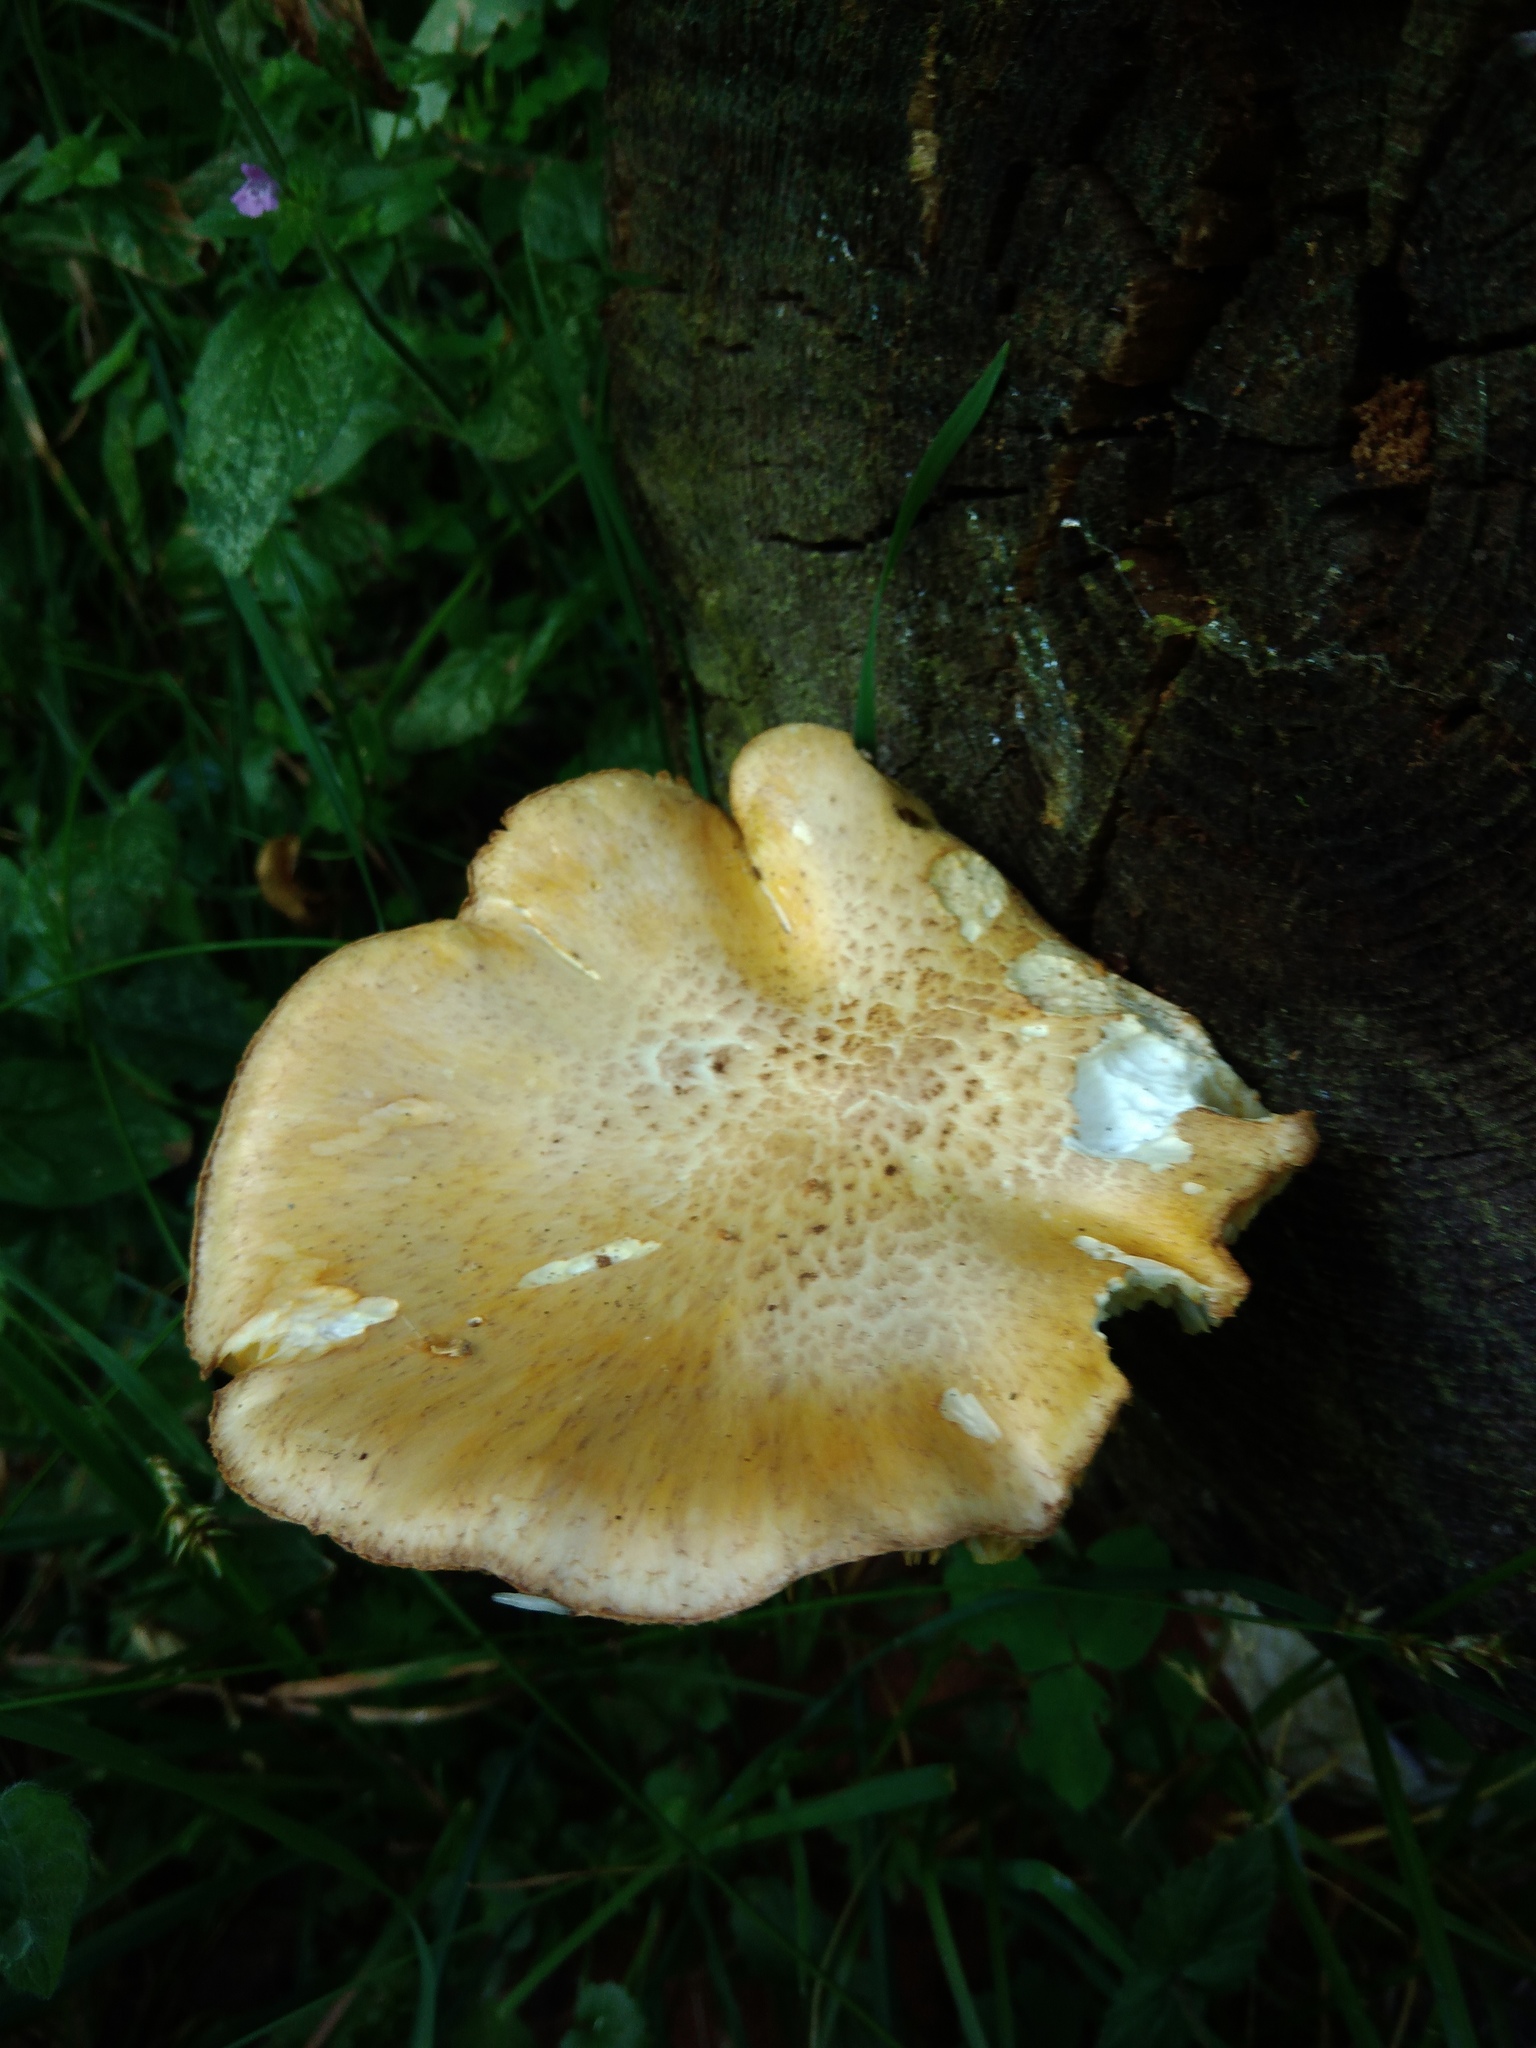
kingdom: Fungi
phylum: Basidiomycota
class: Agaricomycetes
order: Polyporales
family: Polyporaceae
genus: Cerioporus
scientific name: Cerioporus squamosus
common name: Dryad's saddle
